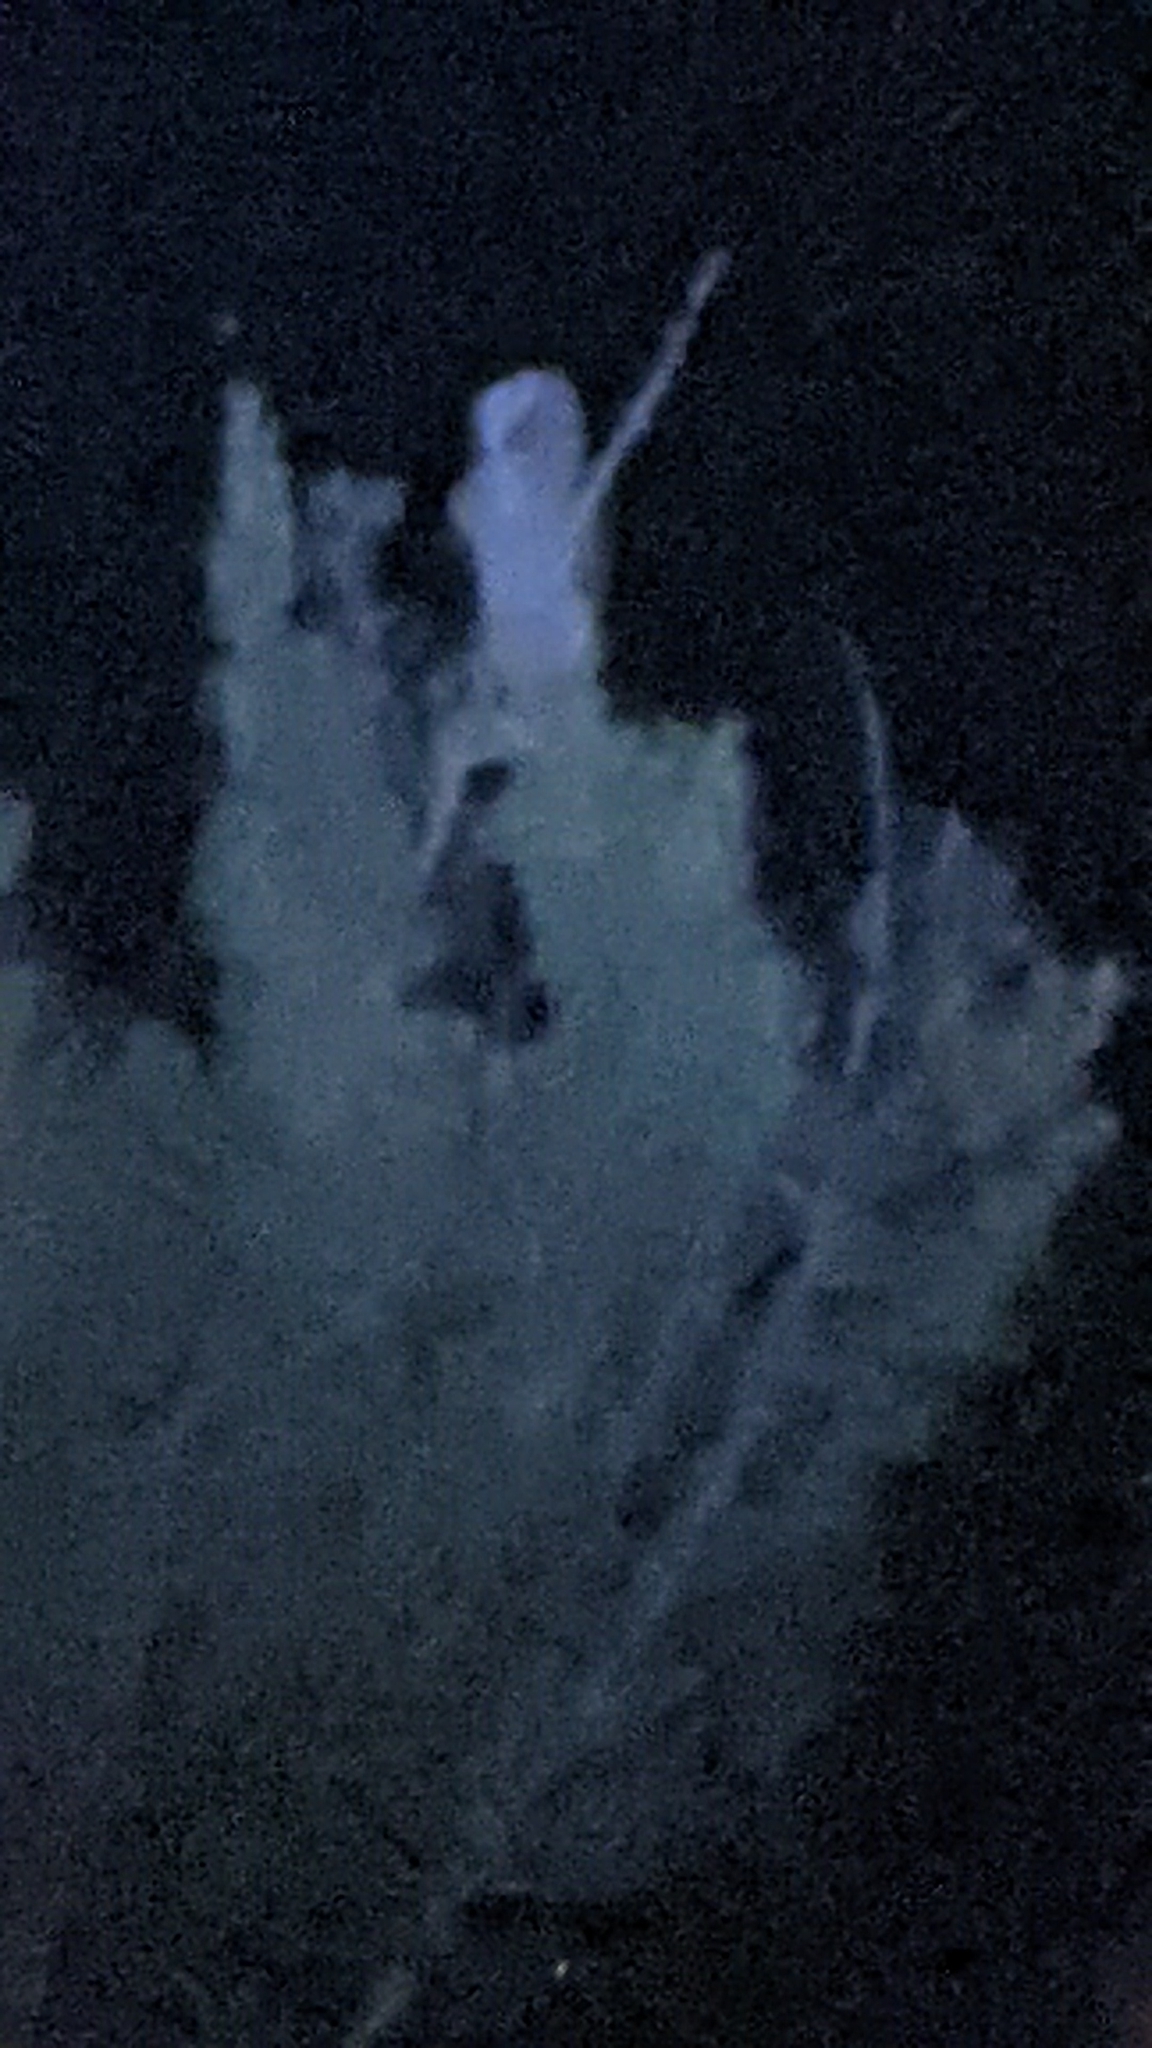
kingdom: Animalia
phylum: Chordata
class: Aves
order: Strigiformes
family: Strigidae
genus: Bubo
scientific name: Bubo virginianus
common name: Great horned owl
